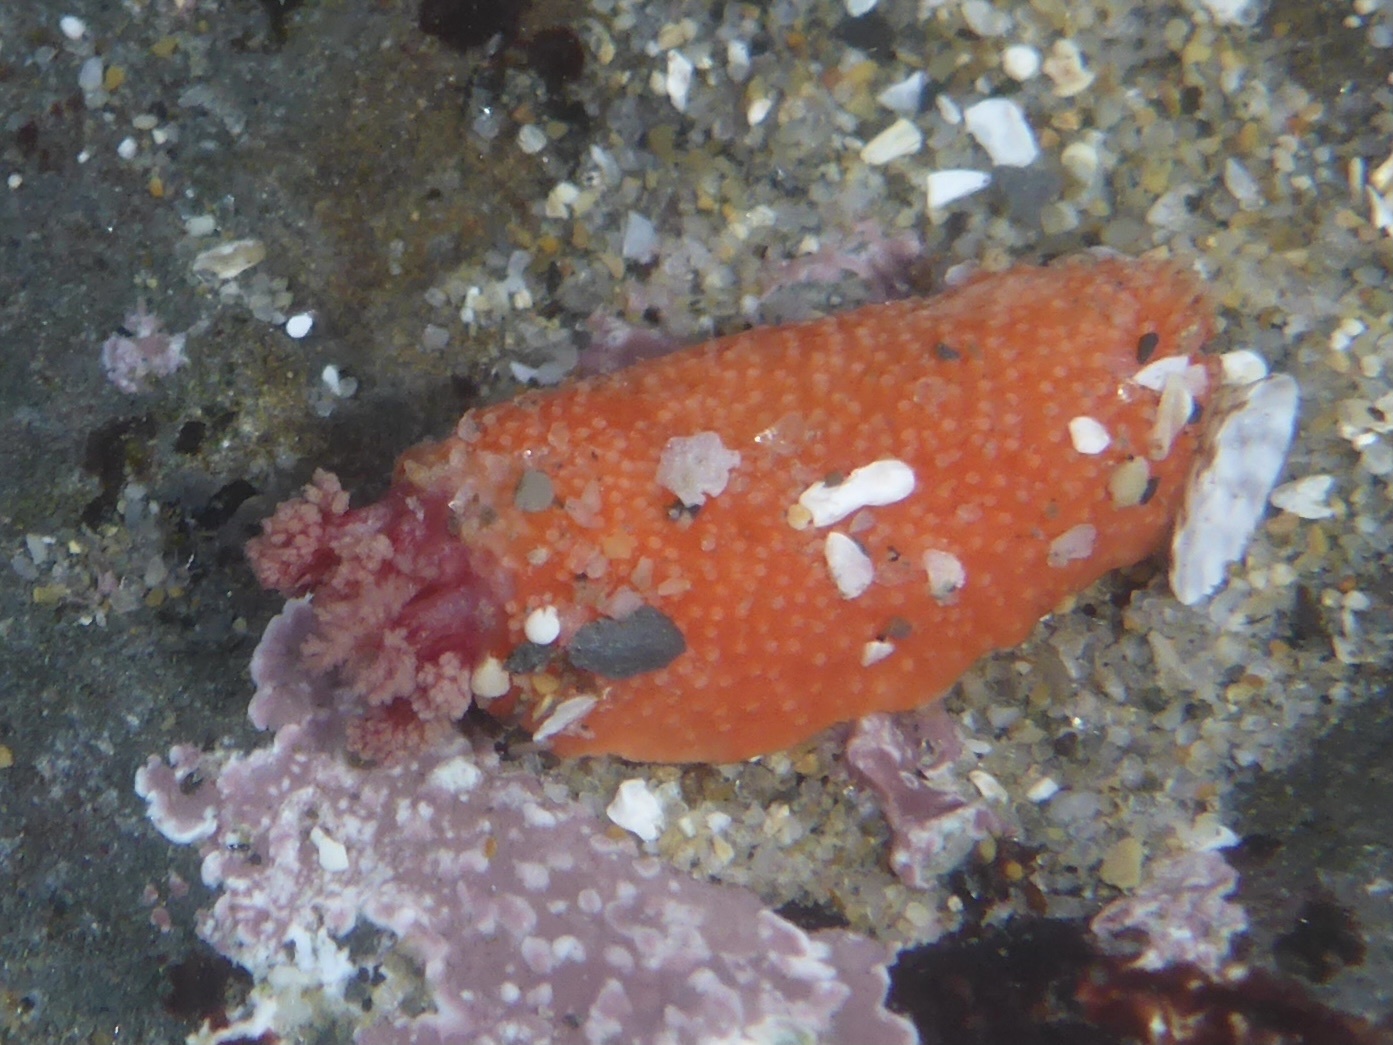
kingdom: Animalia
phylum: Echinodermata
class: Holothuroidea
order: Dendrochirotida
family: Psolidae
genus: Lissothuria
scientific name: Lissothuria nutriens
